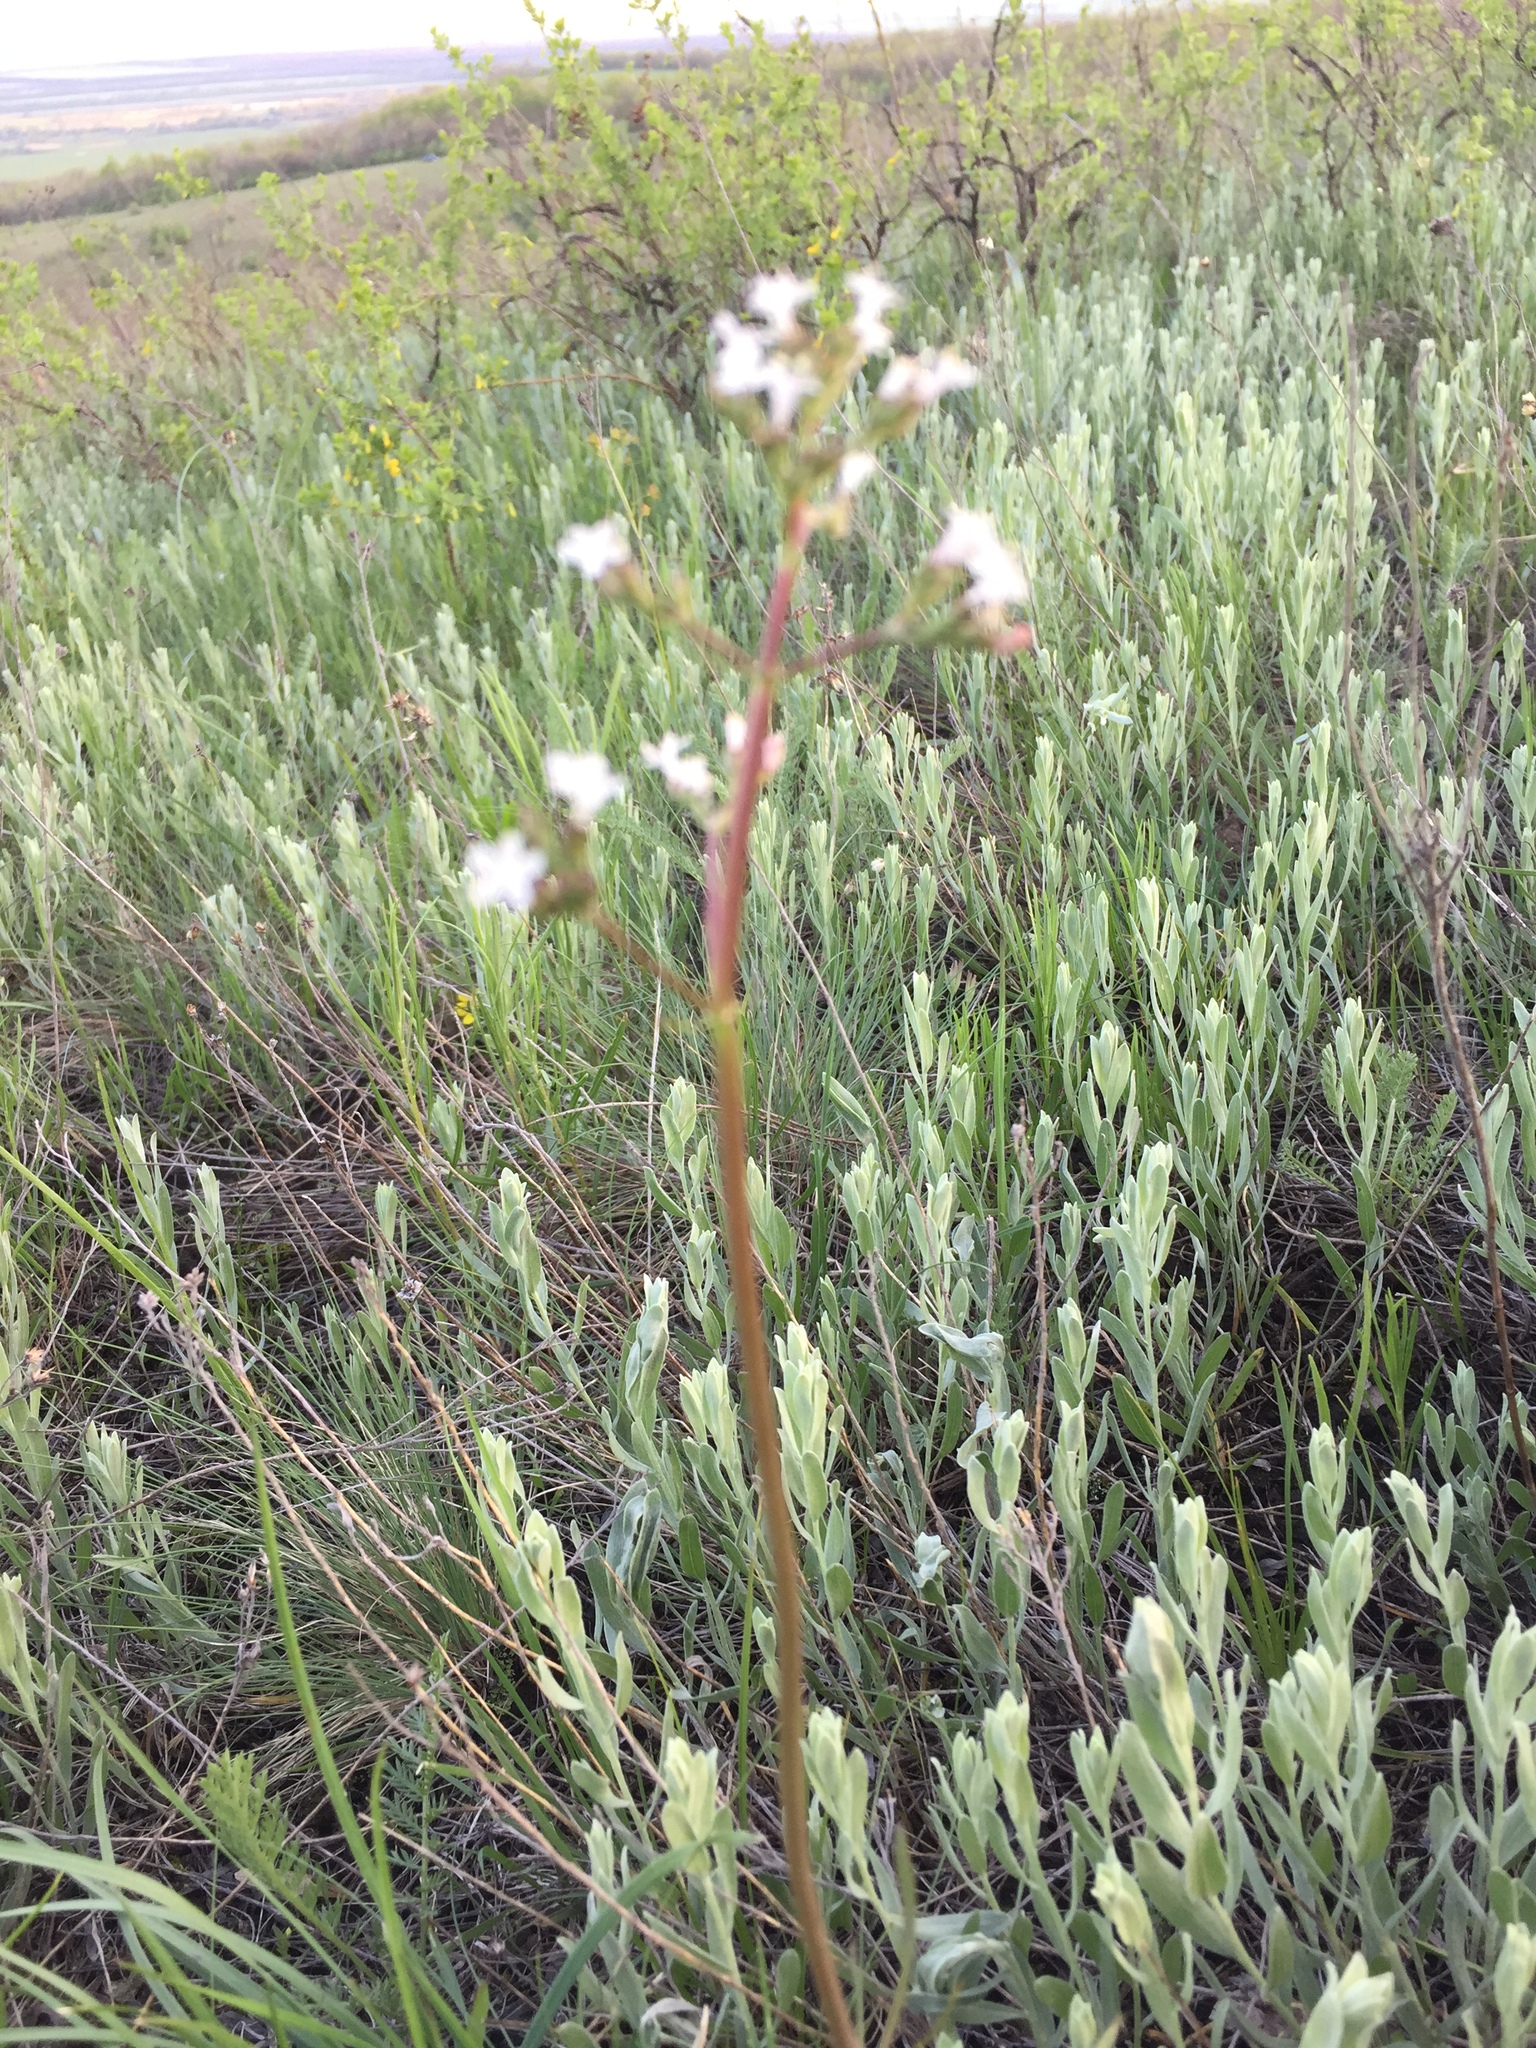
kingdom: Plantae
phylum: Tracheophyta
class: Magnoliopsida
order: Dipsacales
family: Caprifoliaceae
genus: Valeriana
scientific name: Valeriana tuberosa
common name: Tuberous valerian
